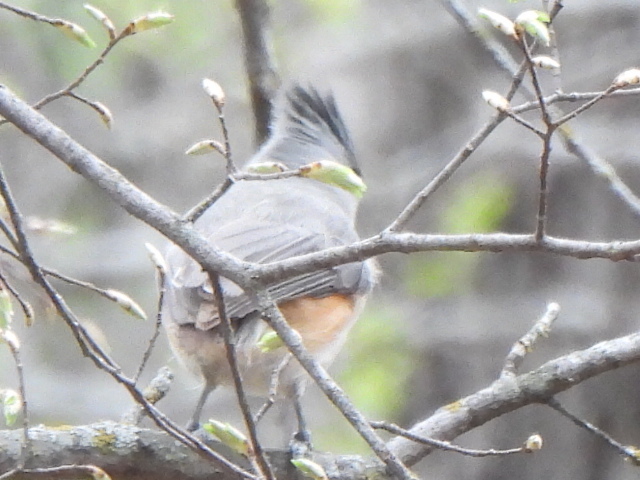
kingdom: Animalia
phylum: Chordata
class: Aves
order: Passeriformes
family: Paridae
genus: Baeolophus
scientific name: Baeolophus
